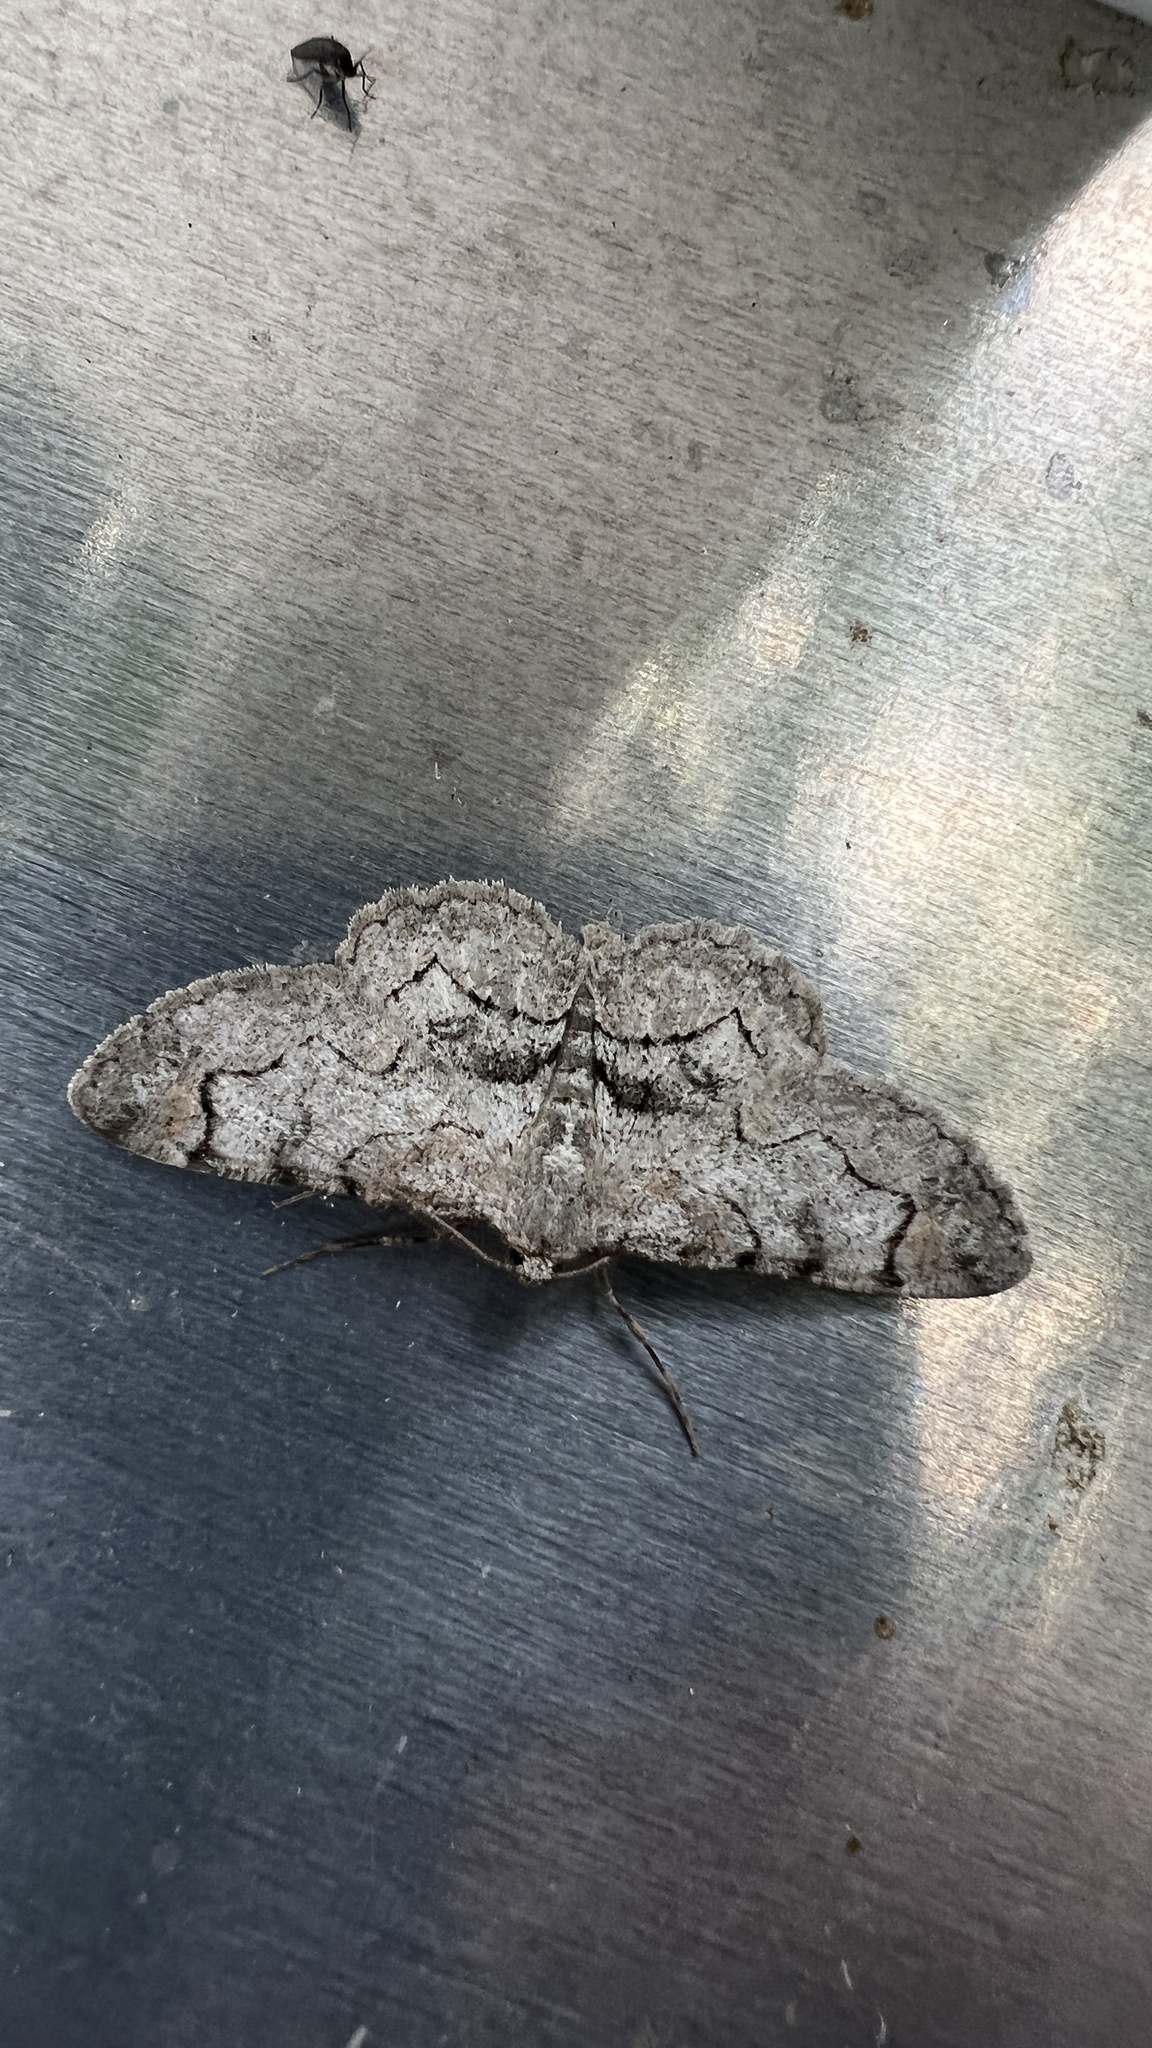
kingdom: Animalia
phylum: Arthropoda
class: Insecta
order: Lepidoptera
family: Geometridae
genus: Iridopsis
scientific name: Iridopsis larvaria
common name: Bent-line gray
